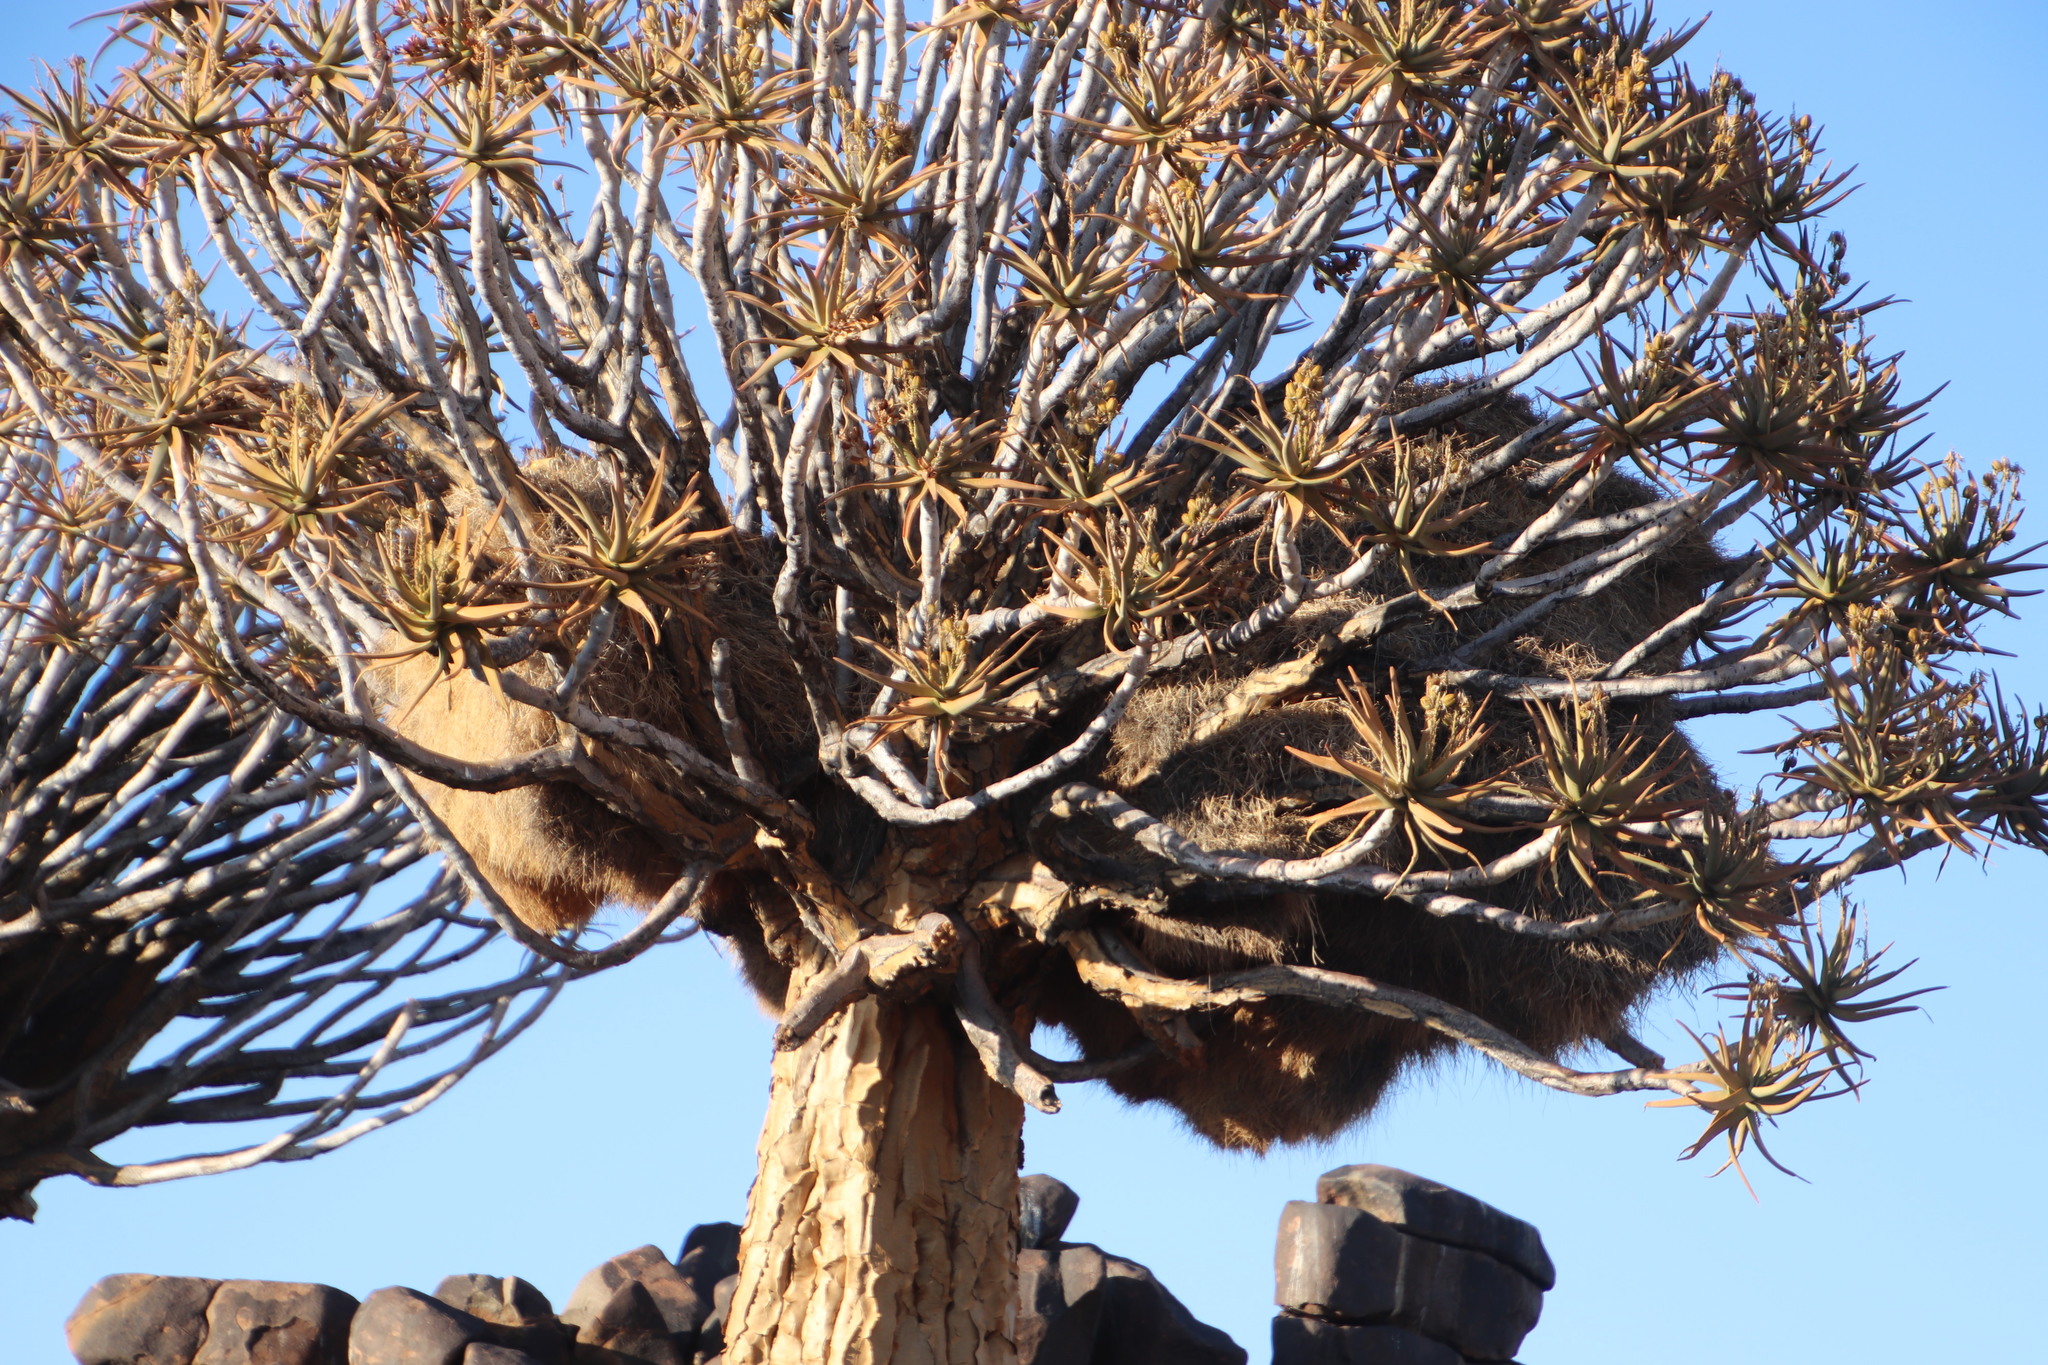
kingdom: Animalia
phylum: Chordata
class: Aves
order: Passeriformes
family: Passeridae
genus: Philetairus
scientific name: Philetairus socius
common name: Sociable weaver
